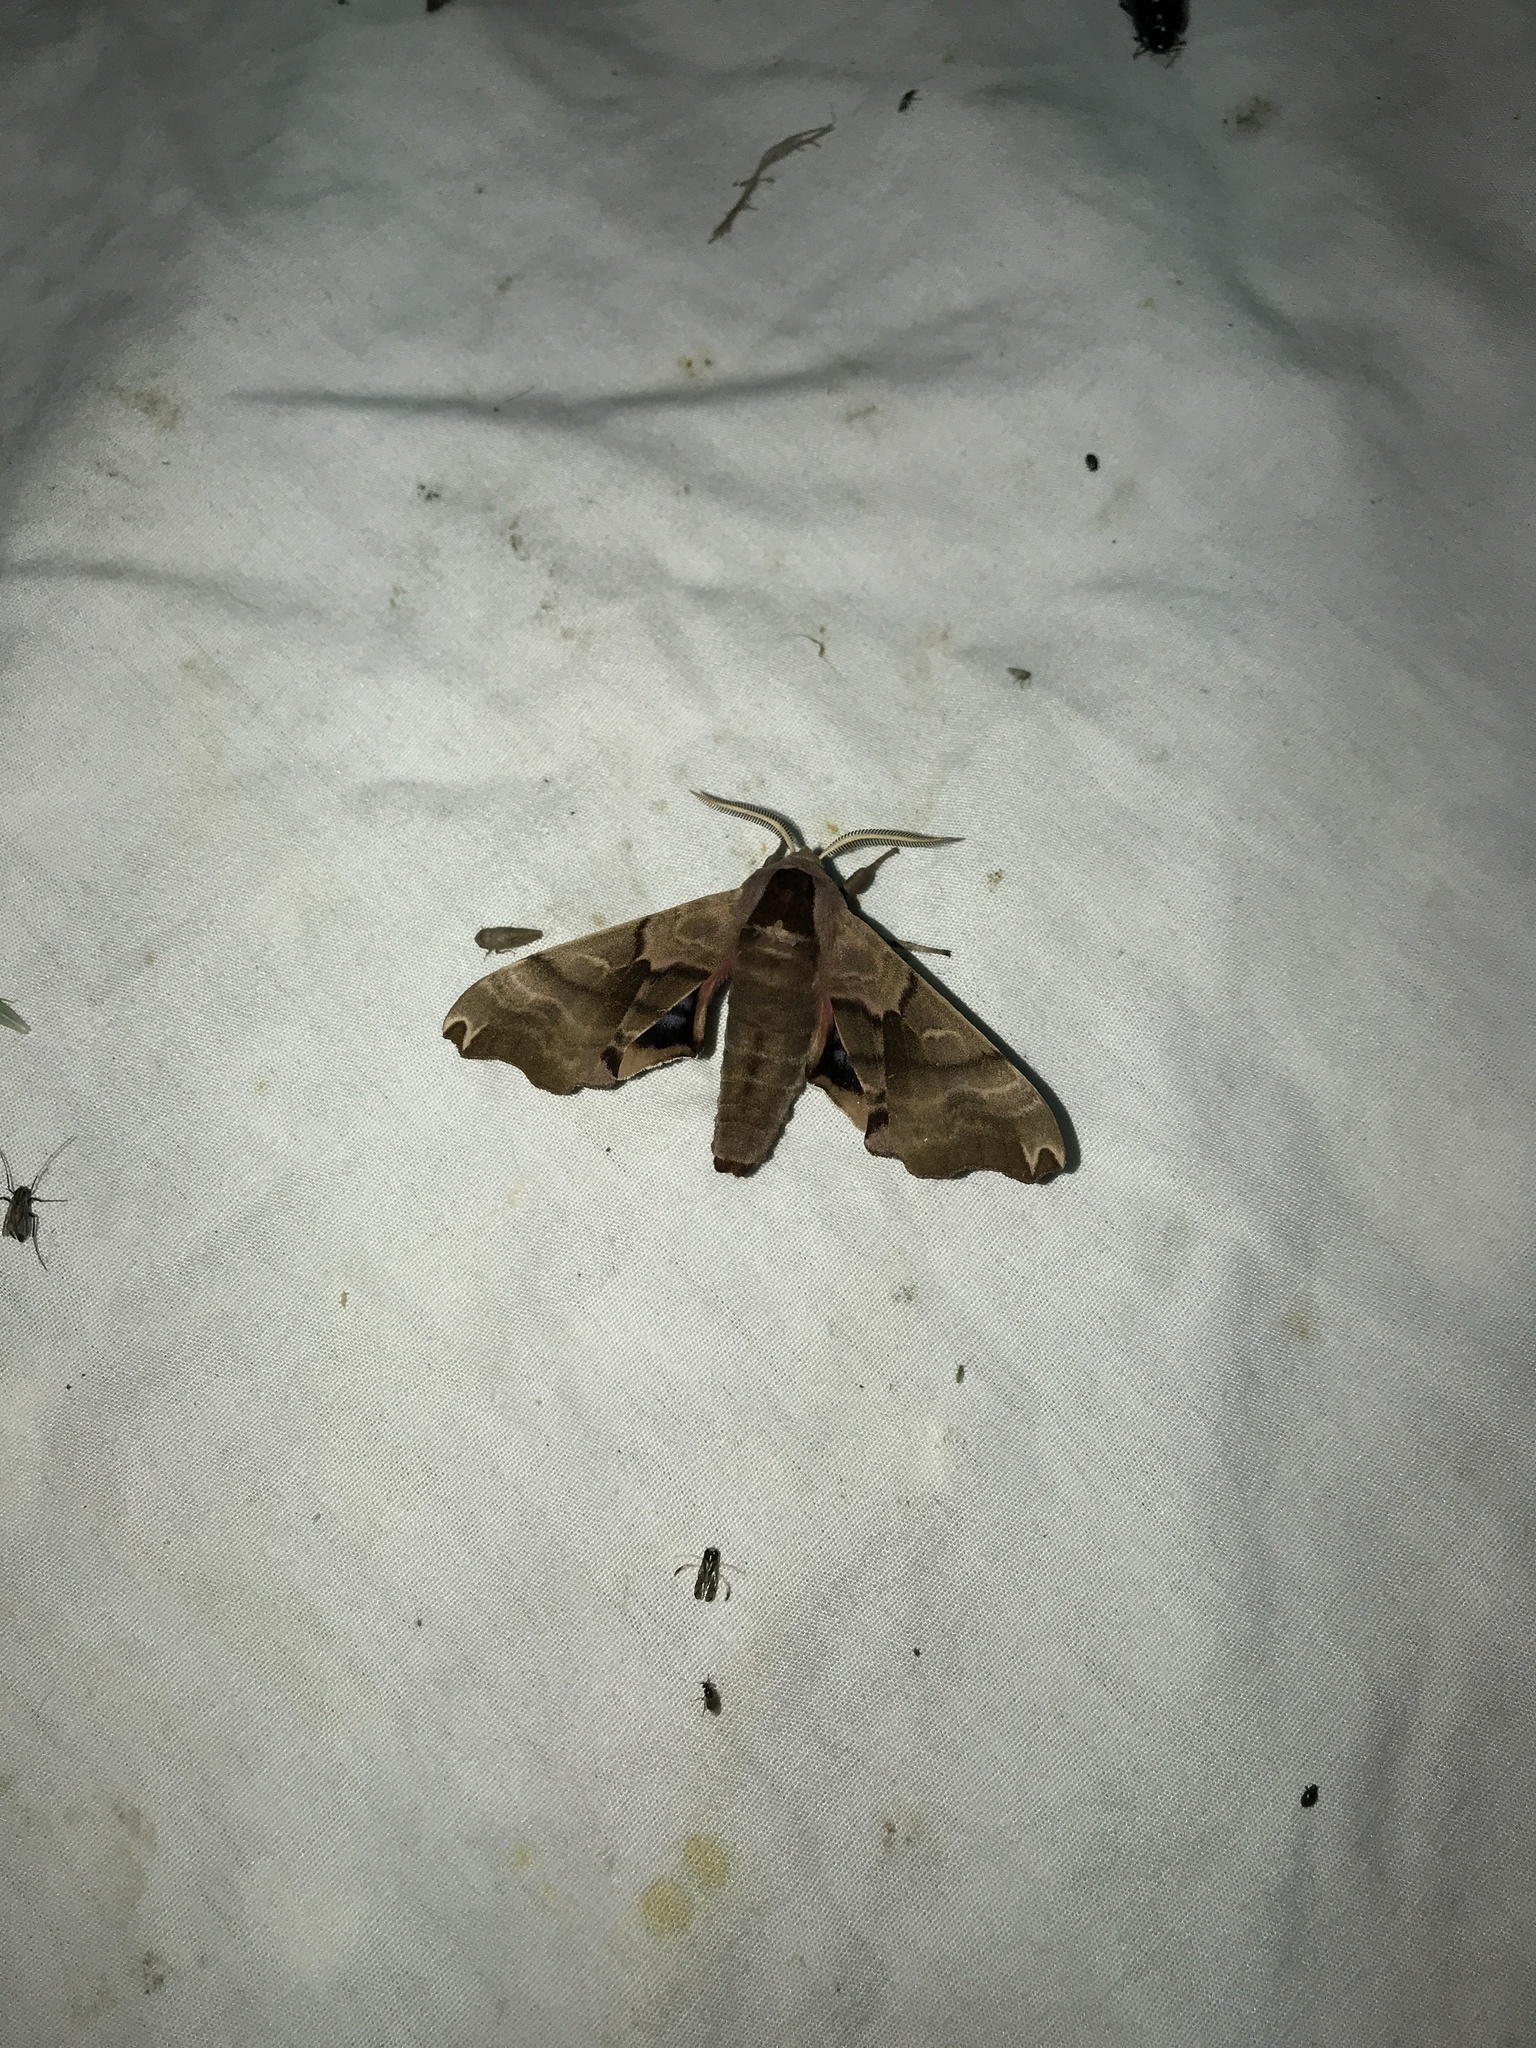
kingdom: Animalia
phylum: Arthropoda
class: Insecta
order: Lepidoptera
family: Sphingidae
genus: Smerinthus
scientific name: Smerinthus jamaicensis
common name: Twin spotted sphinx
